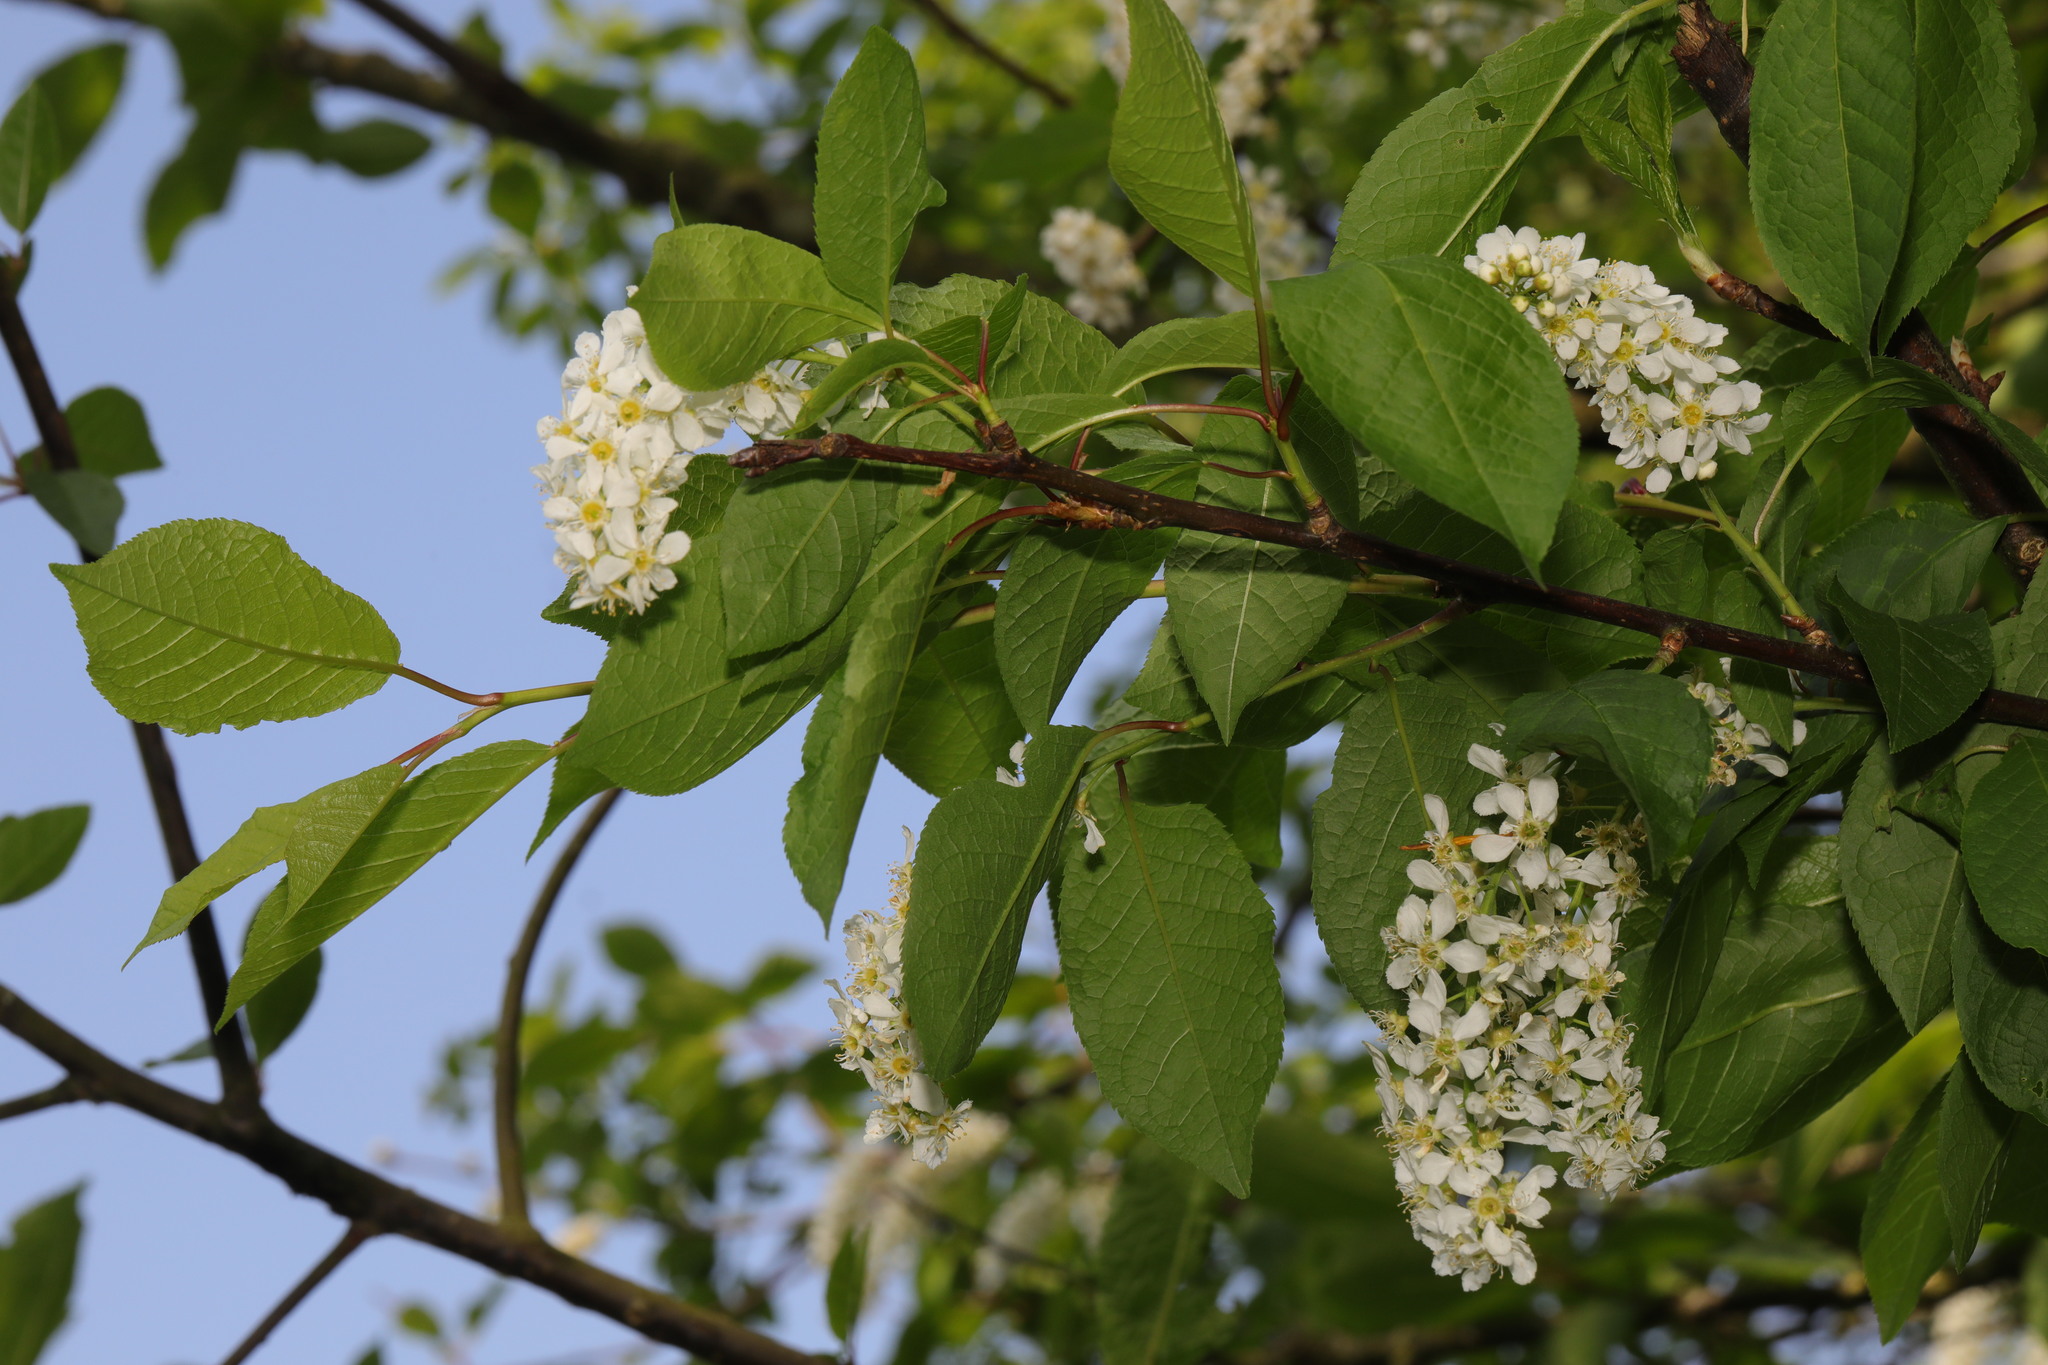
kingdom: Plantae
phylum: Tracheophyta
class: Magnoliopsida
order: Rosales
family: Rosaceae
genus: Prunus
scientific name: Prunus padus
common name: Bird cherry
